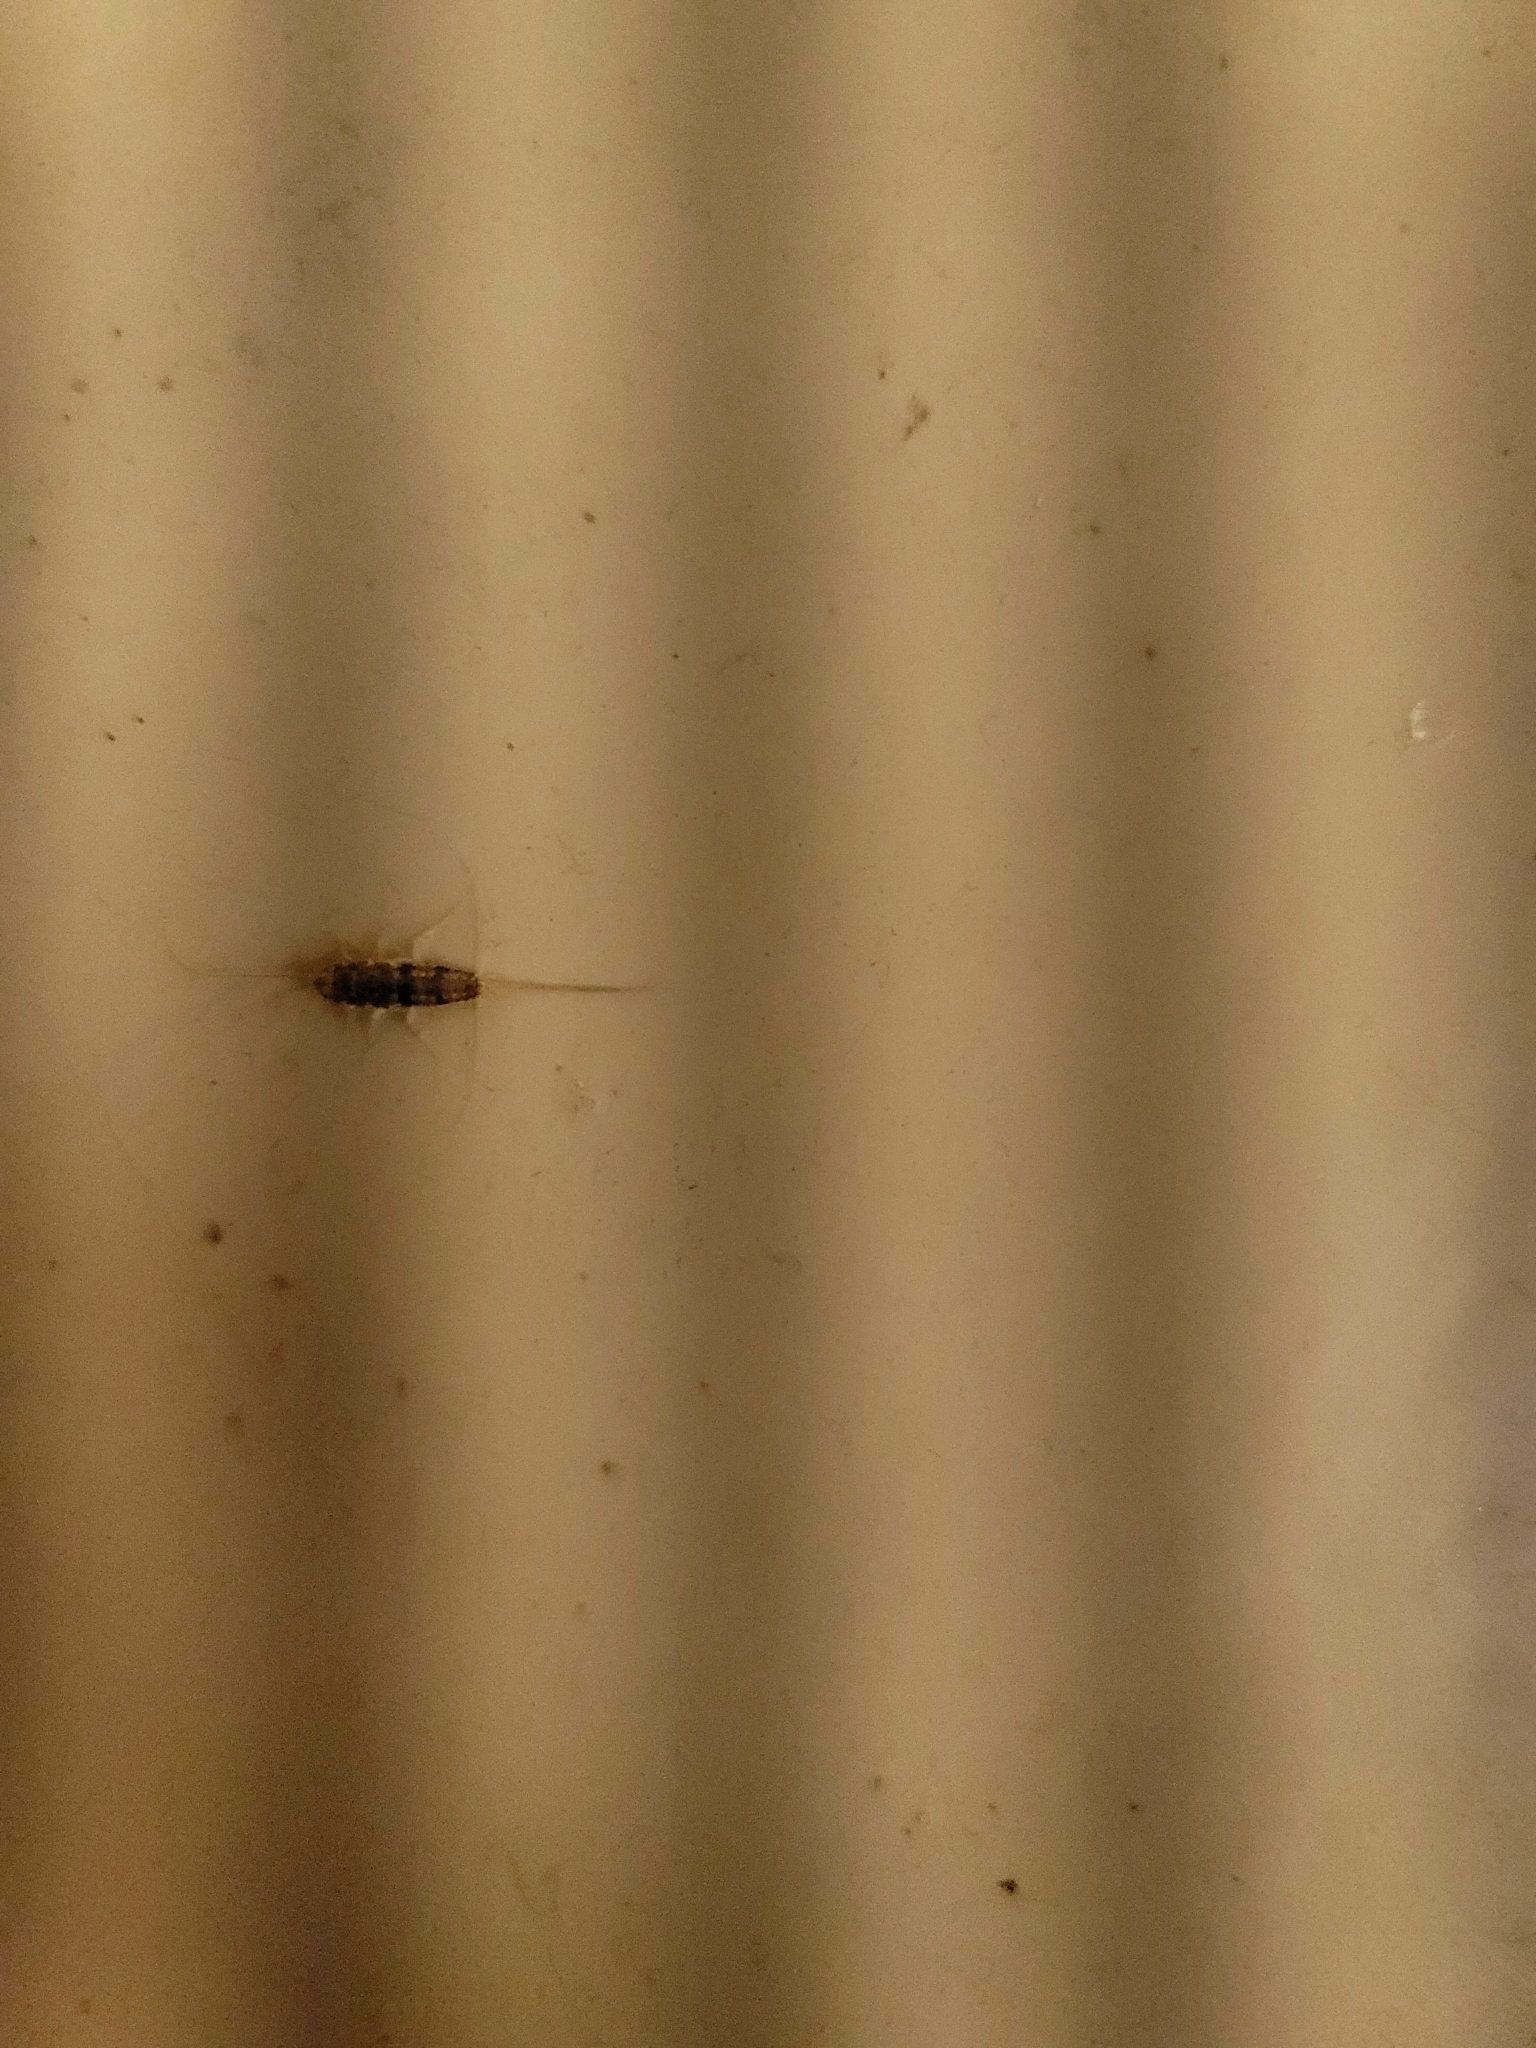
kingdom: Animalia
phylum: Arthropoda
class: Insecta
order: Zygentoma
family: Lepismatidae
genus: Thermobia
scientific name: Thermobia domestica
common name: Firebrat
